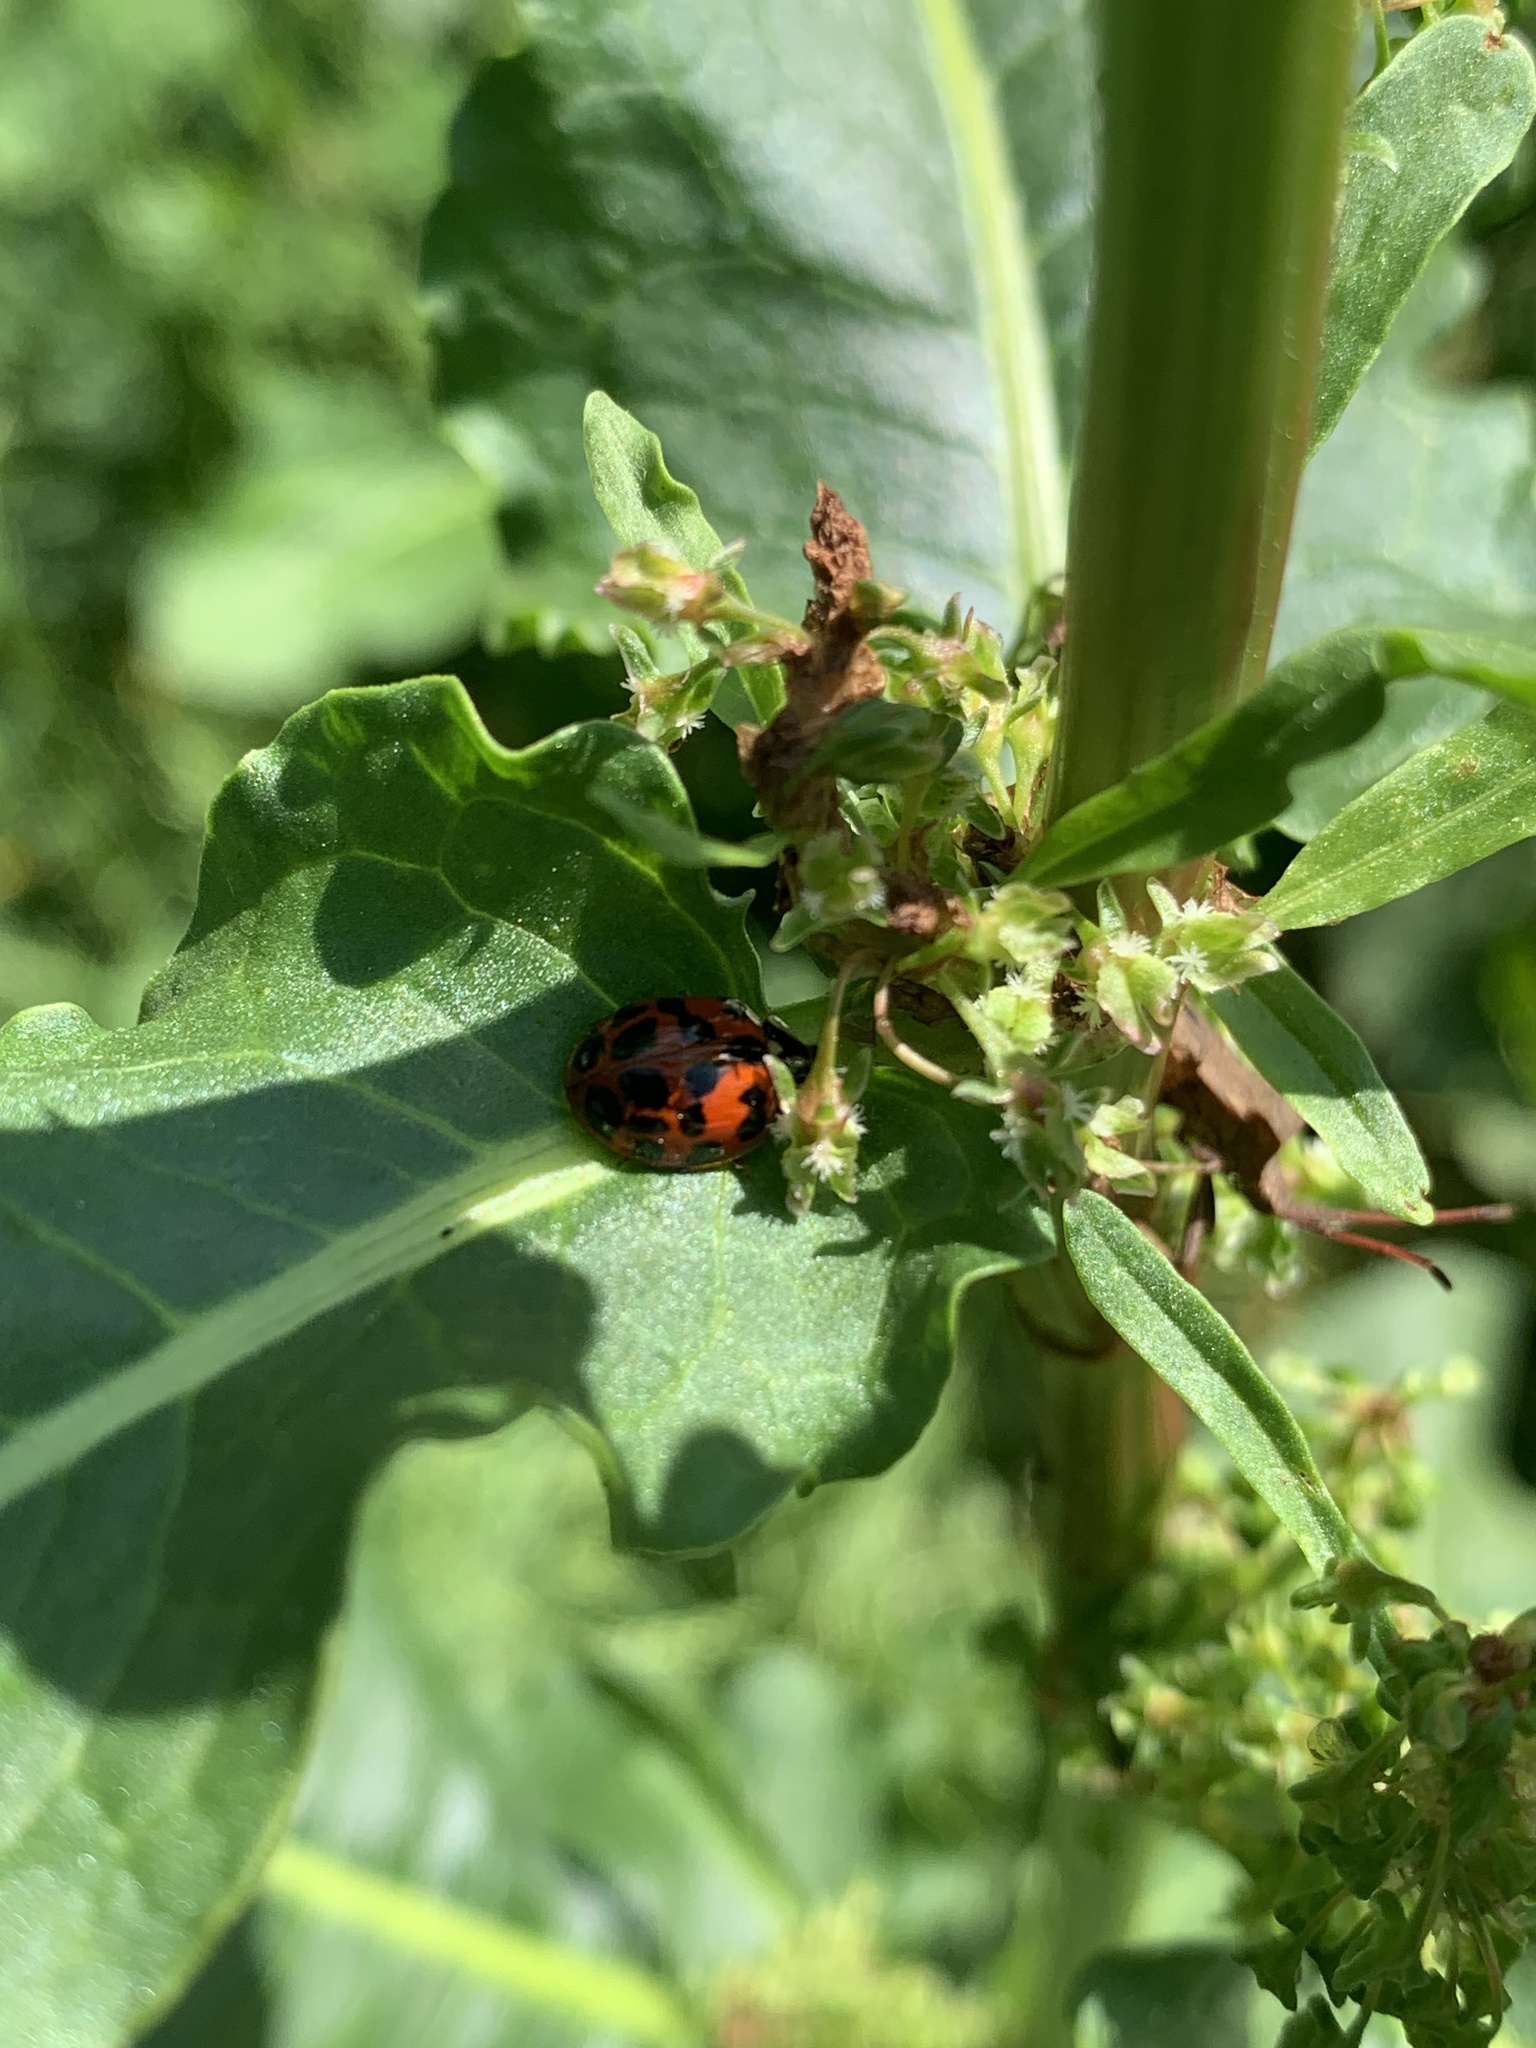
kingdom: Animalia
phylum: Arthropoda
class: Insecta
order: Coleoptera
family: Coccinellidae
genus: Harmonia
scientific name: Harmonia axyridis
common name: Harlequin ladybird
